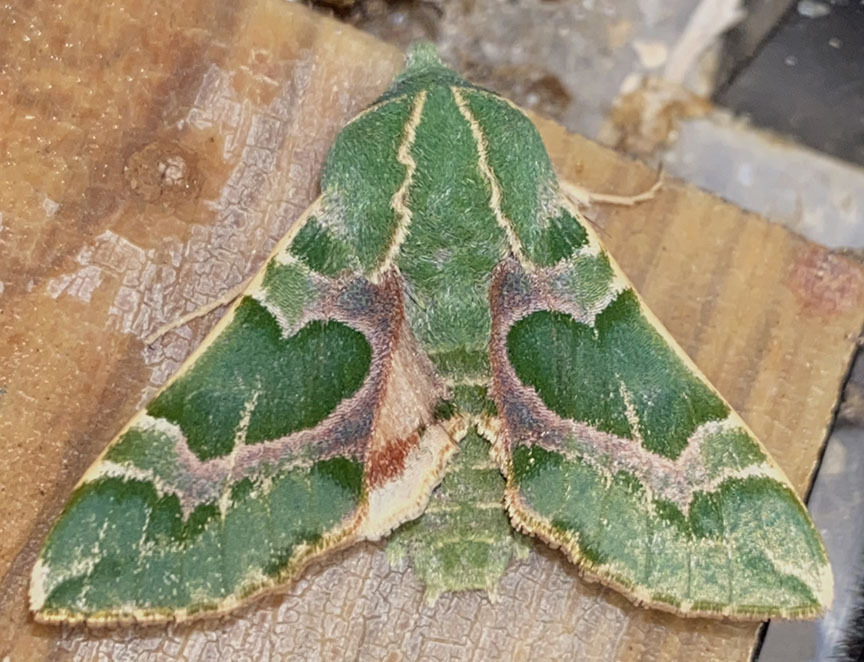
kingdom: Animalia
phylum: Arthropoda
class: Insecta
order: Lepidoptera
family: Sphingidae
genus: Proserpinus
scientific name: Proserpinus lucidus
